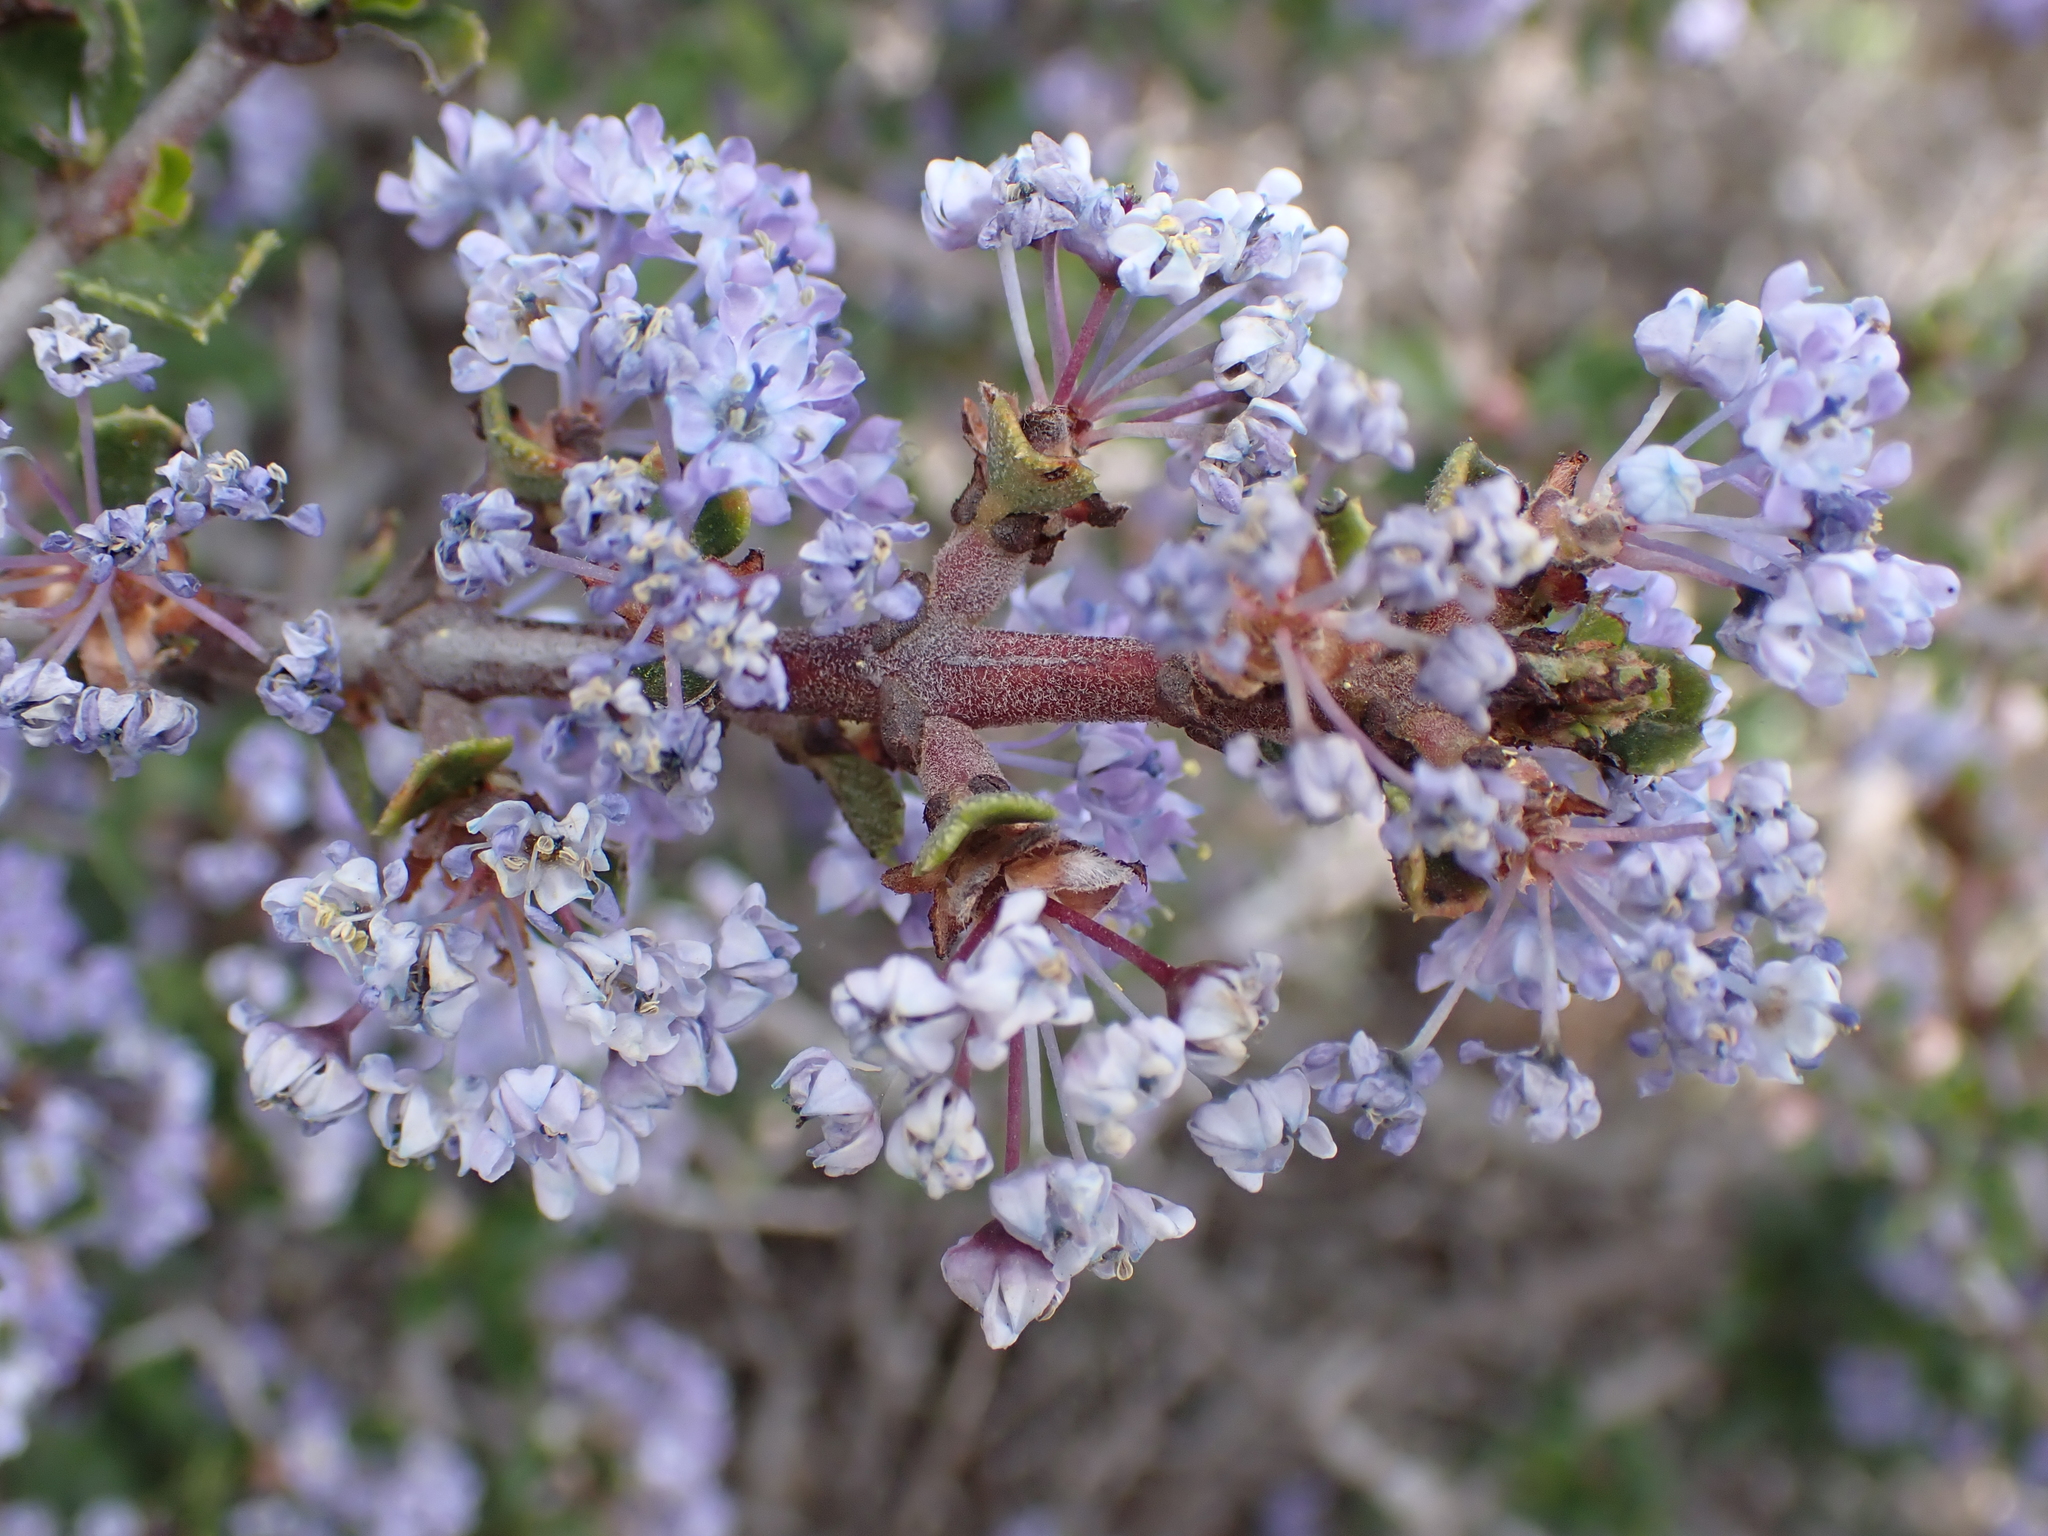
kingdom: Plantae
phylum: Tracheophyta
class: Magnoliopsida
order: Rosales
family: Rhamnaceae
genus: Ceanothus
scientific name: Ceanothus cuneatus
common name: Cuneate ceanothus
